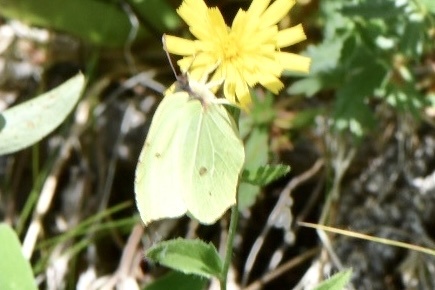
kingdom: Animalia
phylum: Arthropoda
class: Insecta
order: Lepidoptera
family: Pieridae
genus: Gonepteryx
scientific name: Gonepteryx rhamni
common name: Brimstone
